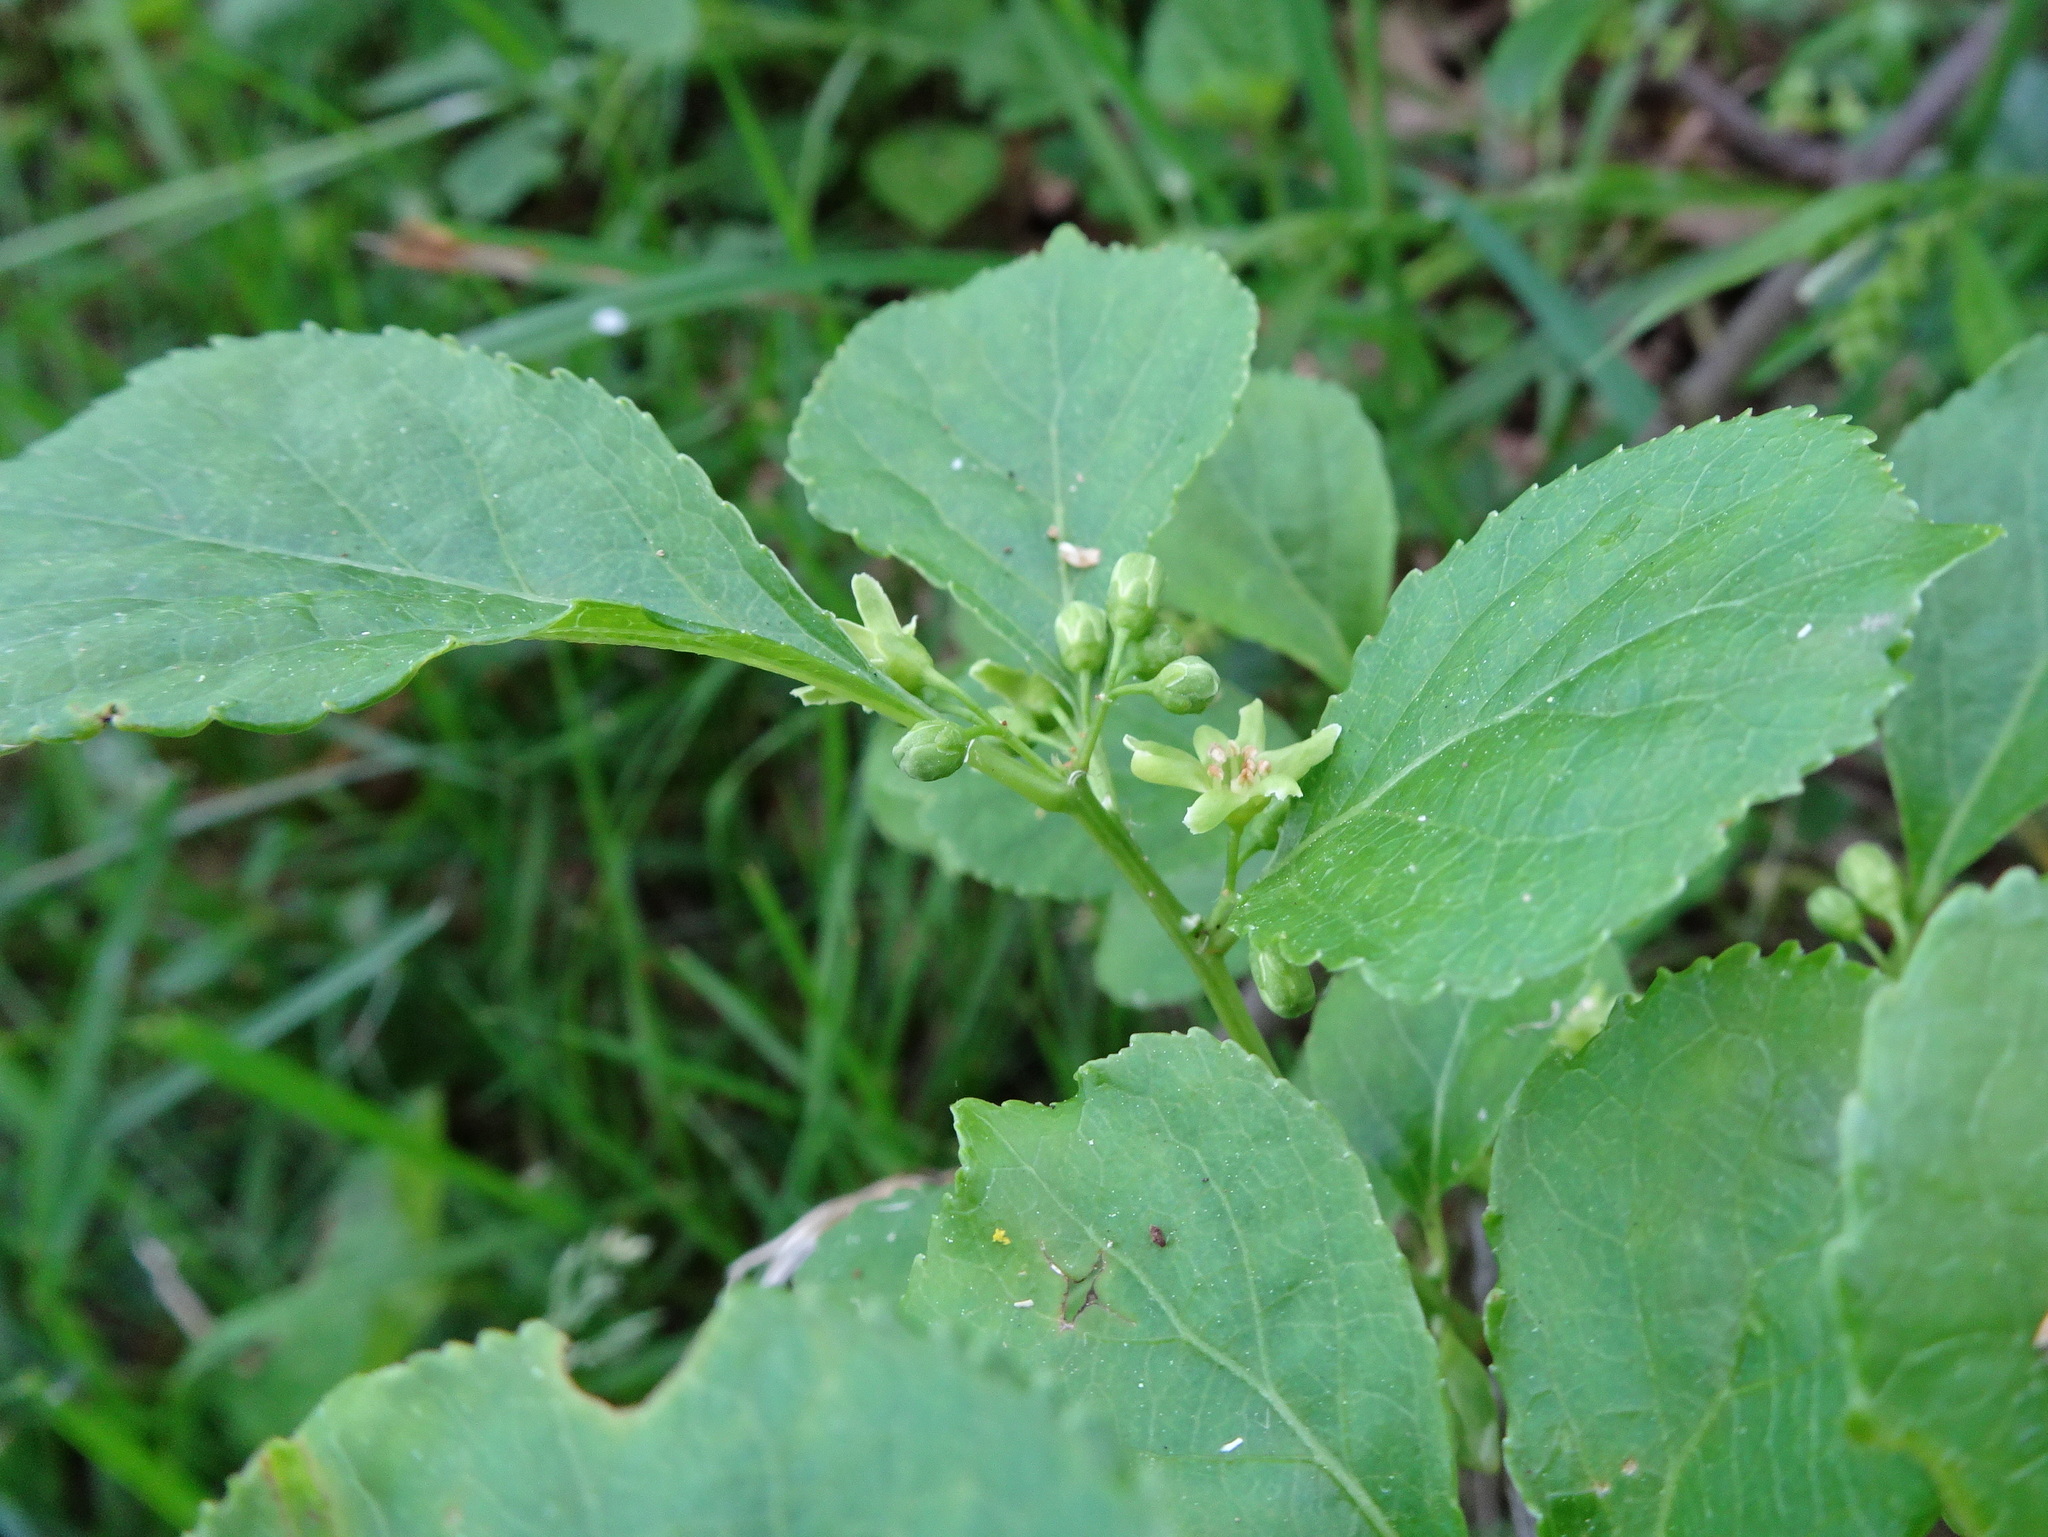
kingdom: Plantae
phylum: Tracheophyta
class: Magnoliopsida
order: Celastrales
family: Celastraceae
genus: Celastrus
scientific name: Celastrus orbiculatus
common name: Oriental bittersweet
